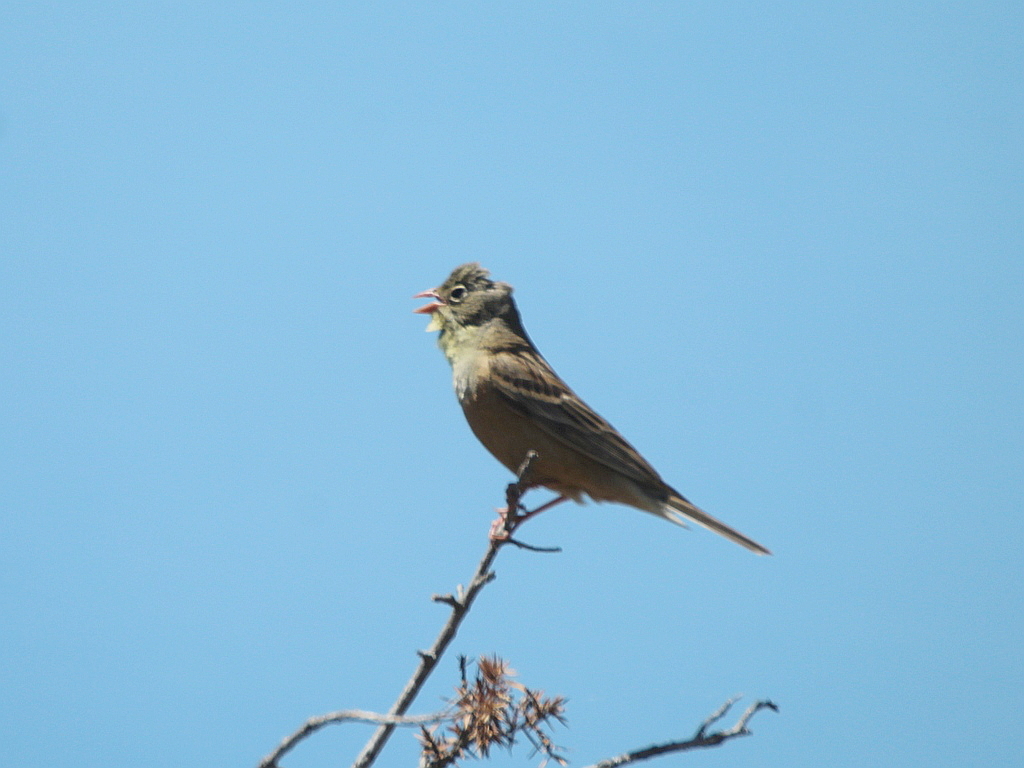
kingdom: Animalia
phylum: Chordata
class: Aves
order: Passeriformes
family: Emberizidae
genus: Emberiza
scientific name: Emberiza hortulana
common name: Ortolan bunting
